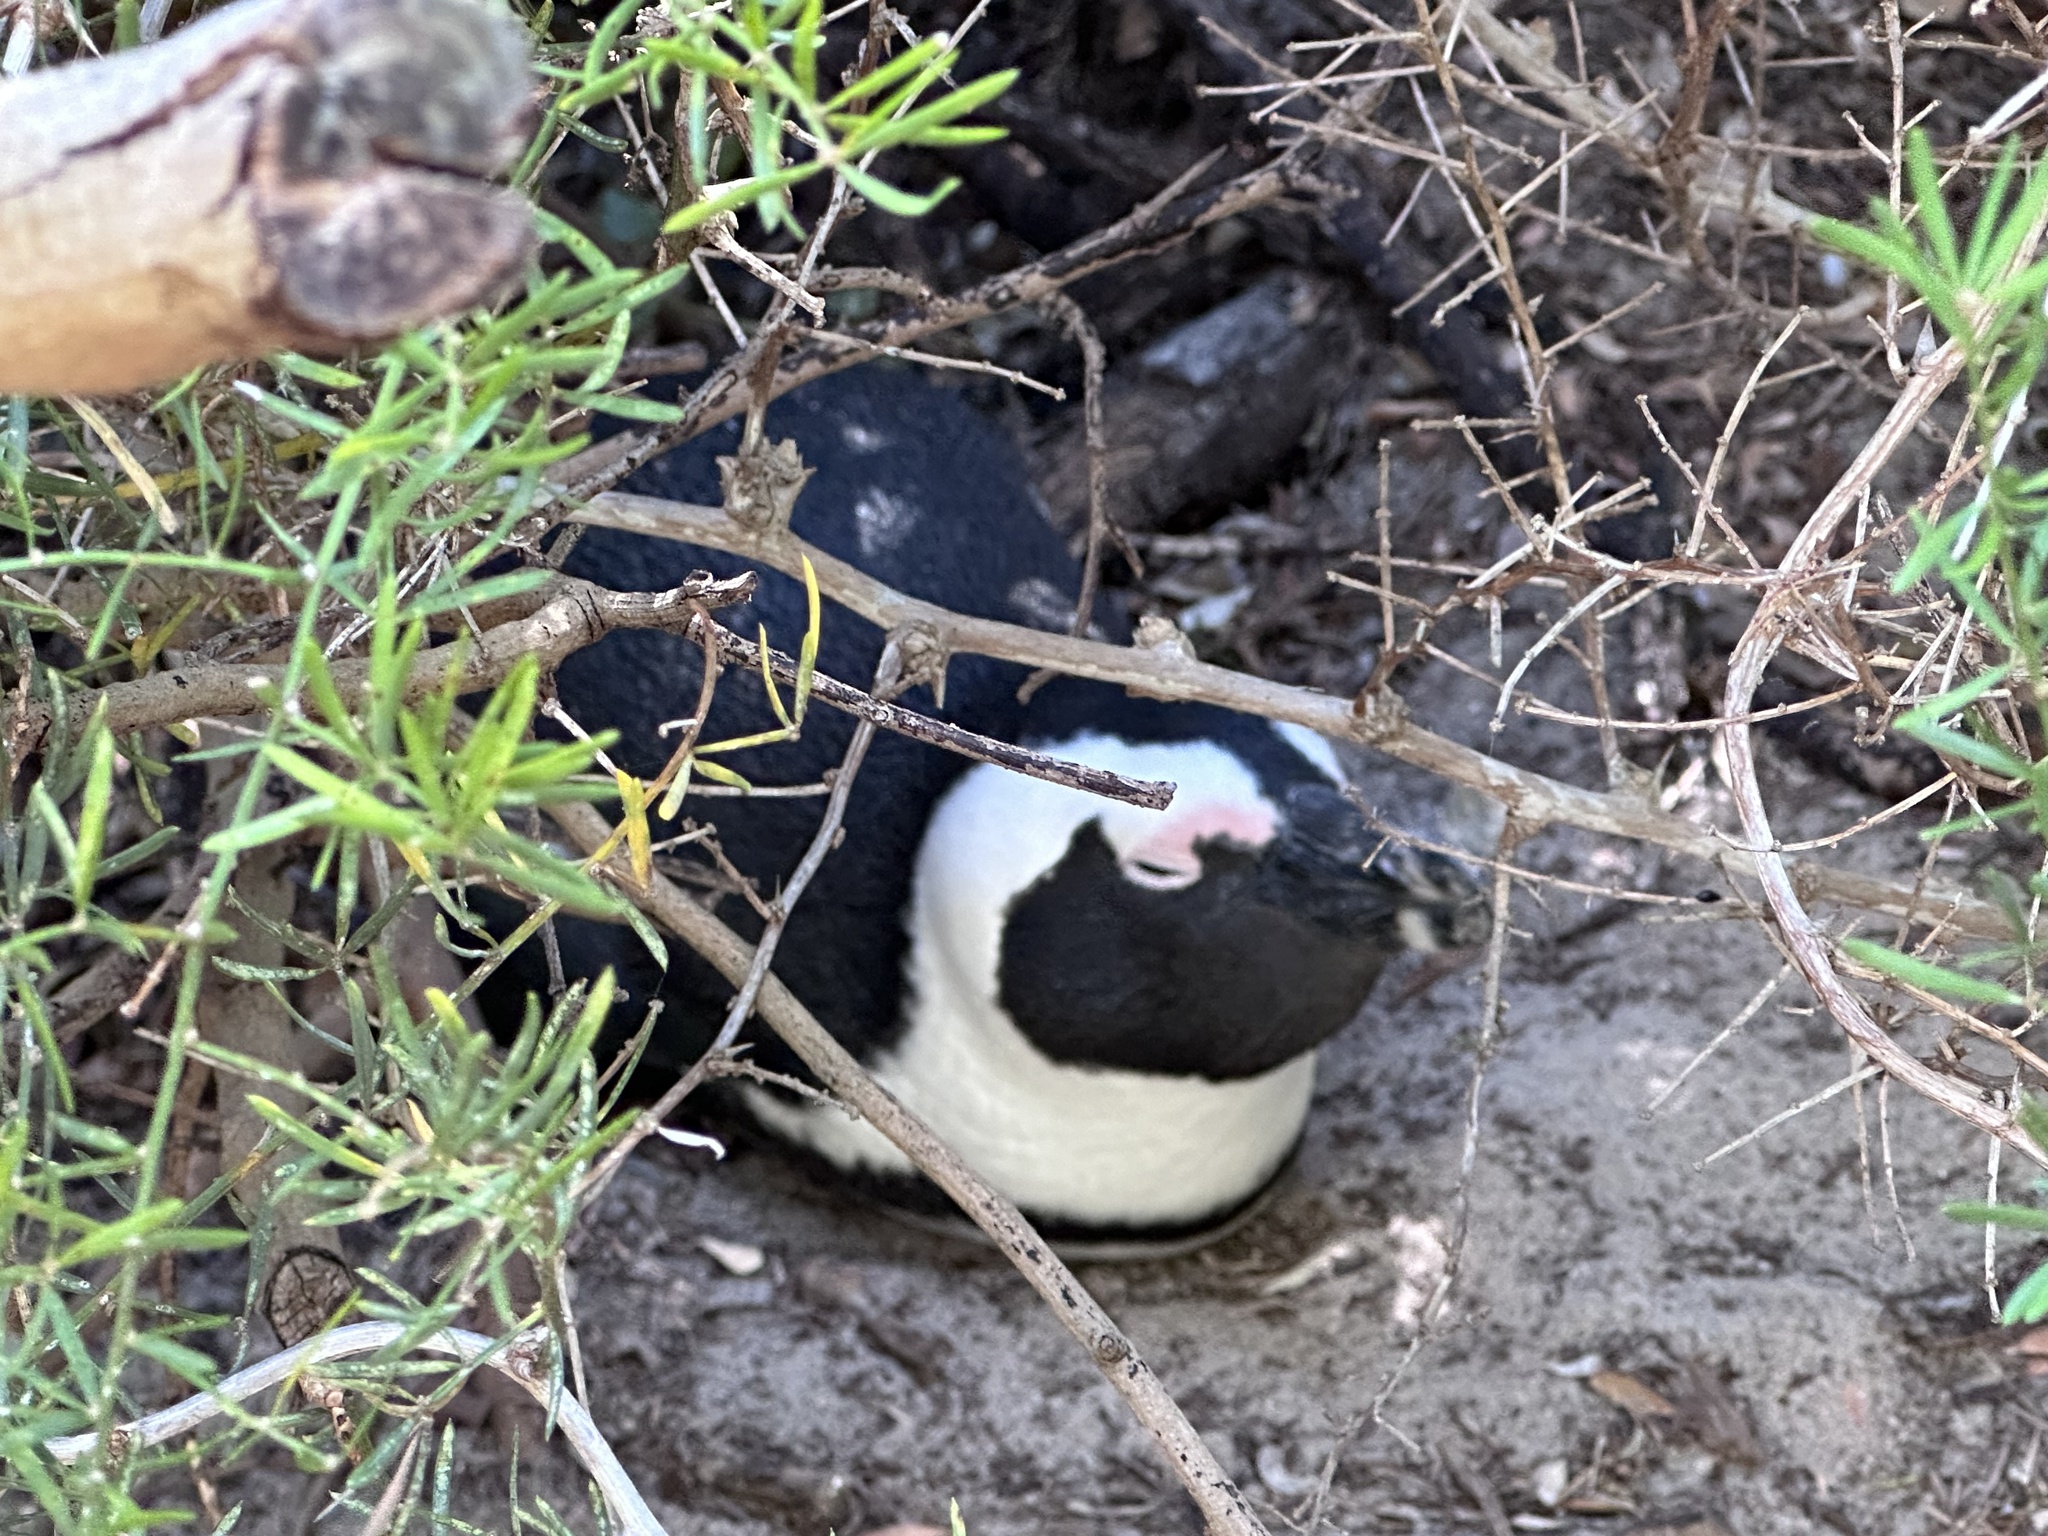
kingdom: Animalia
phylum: Chordata
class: Aves
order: Sphenisciformes
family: Spheniscidae
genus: Spheniscus
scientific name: Spheniscus demersus
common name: African penguin
